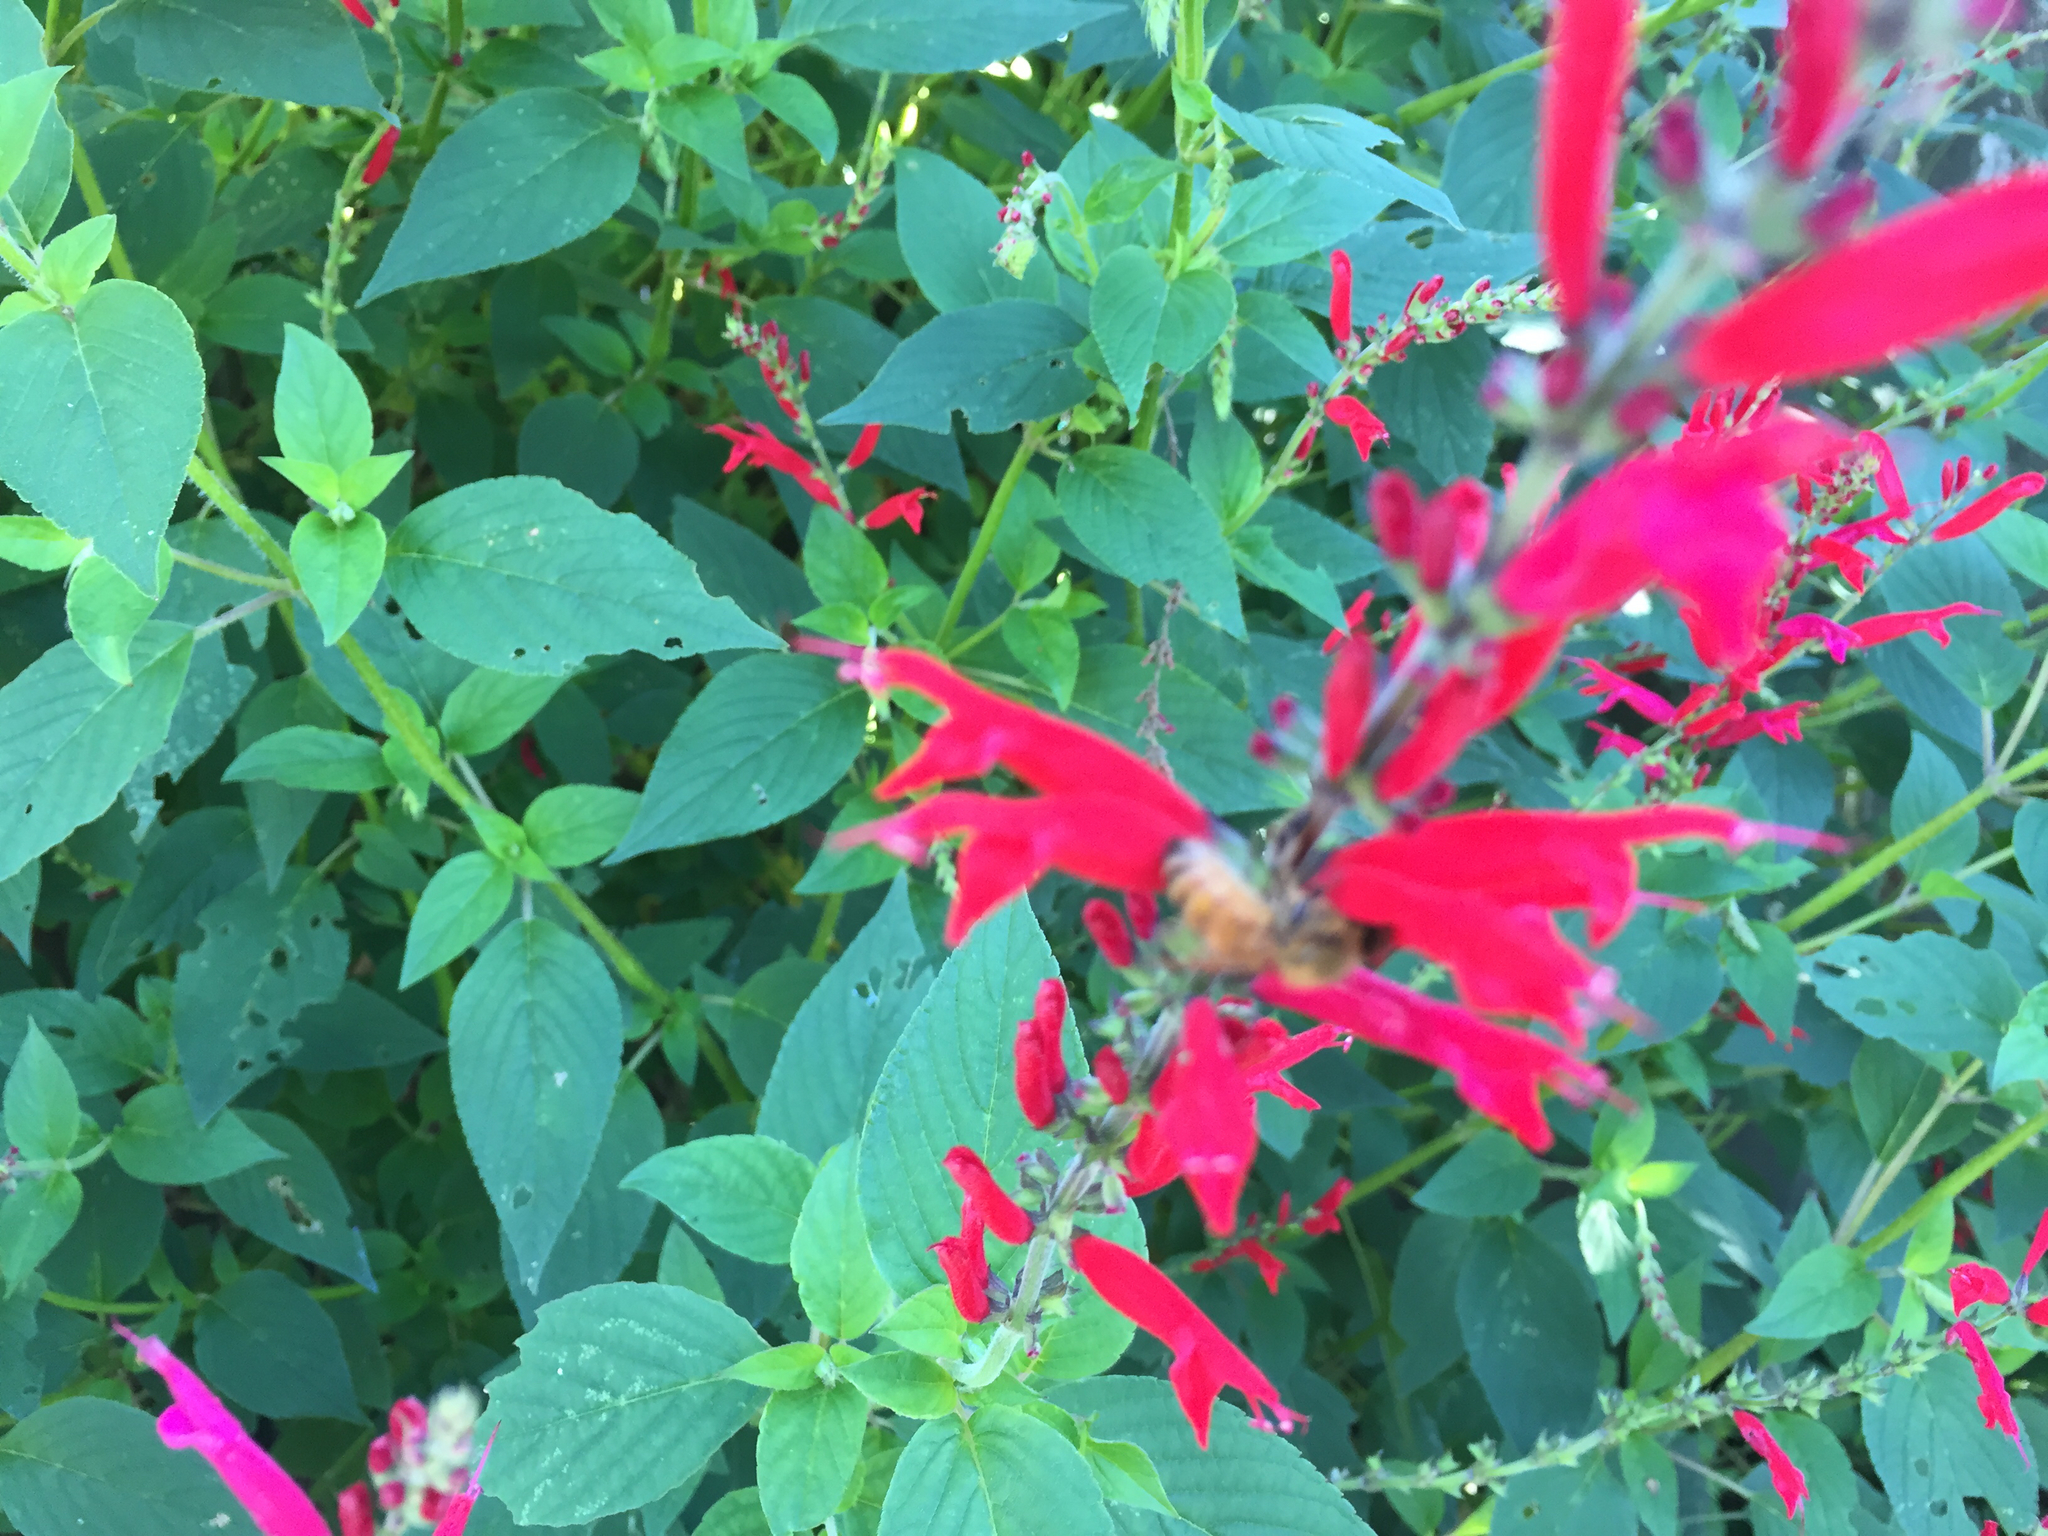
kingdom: Animalia
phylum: Arthropoda
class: Insecta
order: Hymenoptera
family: Apidae
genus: Apis
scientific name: Apis mellifera
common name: Honey bee
